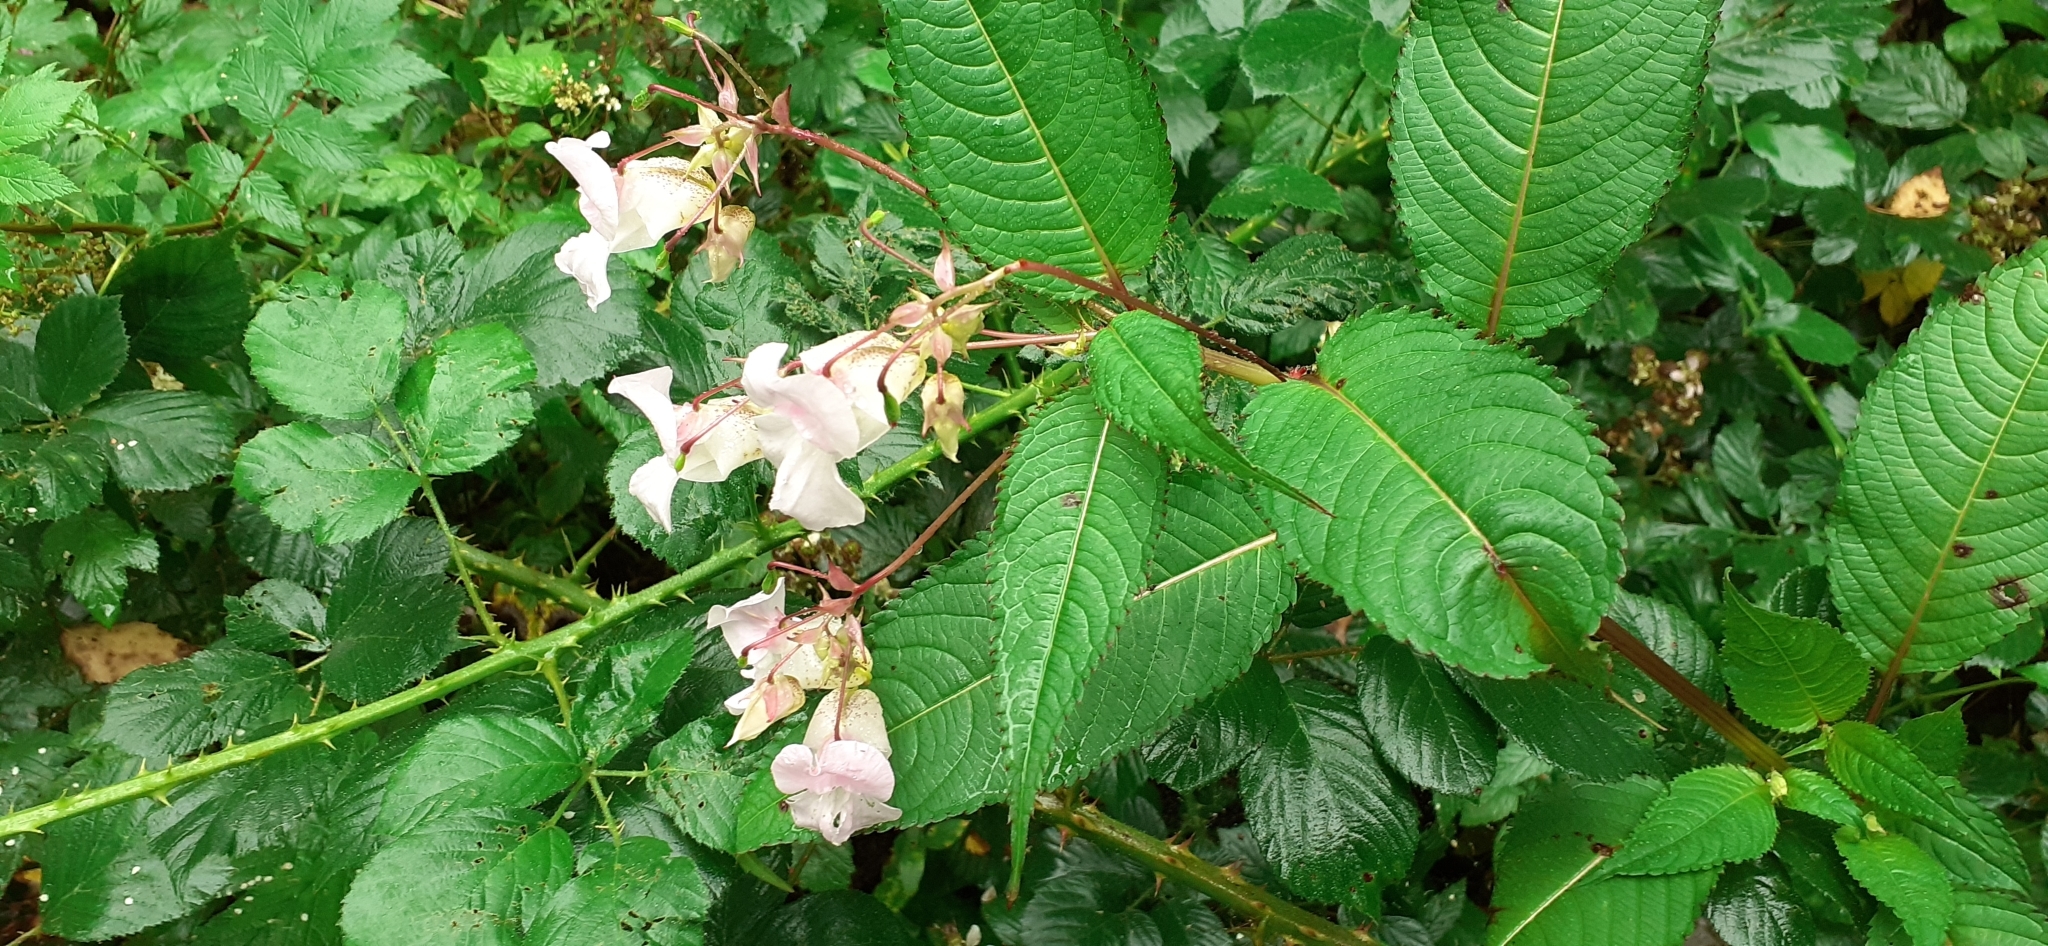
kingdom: Plantae
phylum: Tracheophyta
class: Magnoliopsida
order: Ericales
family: Balsaminaceae
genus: Impatiens
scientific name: Impatiens glandulifera
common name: Himalayan balsam
